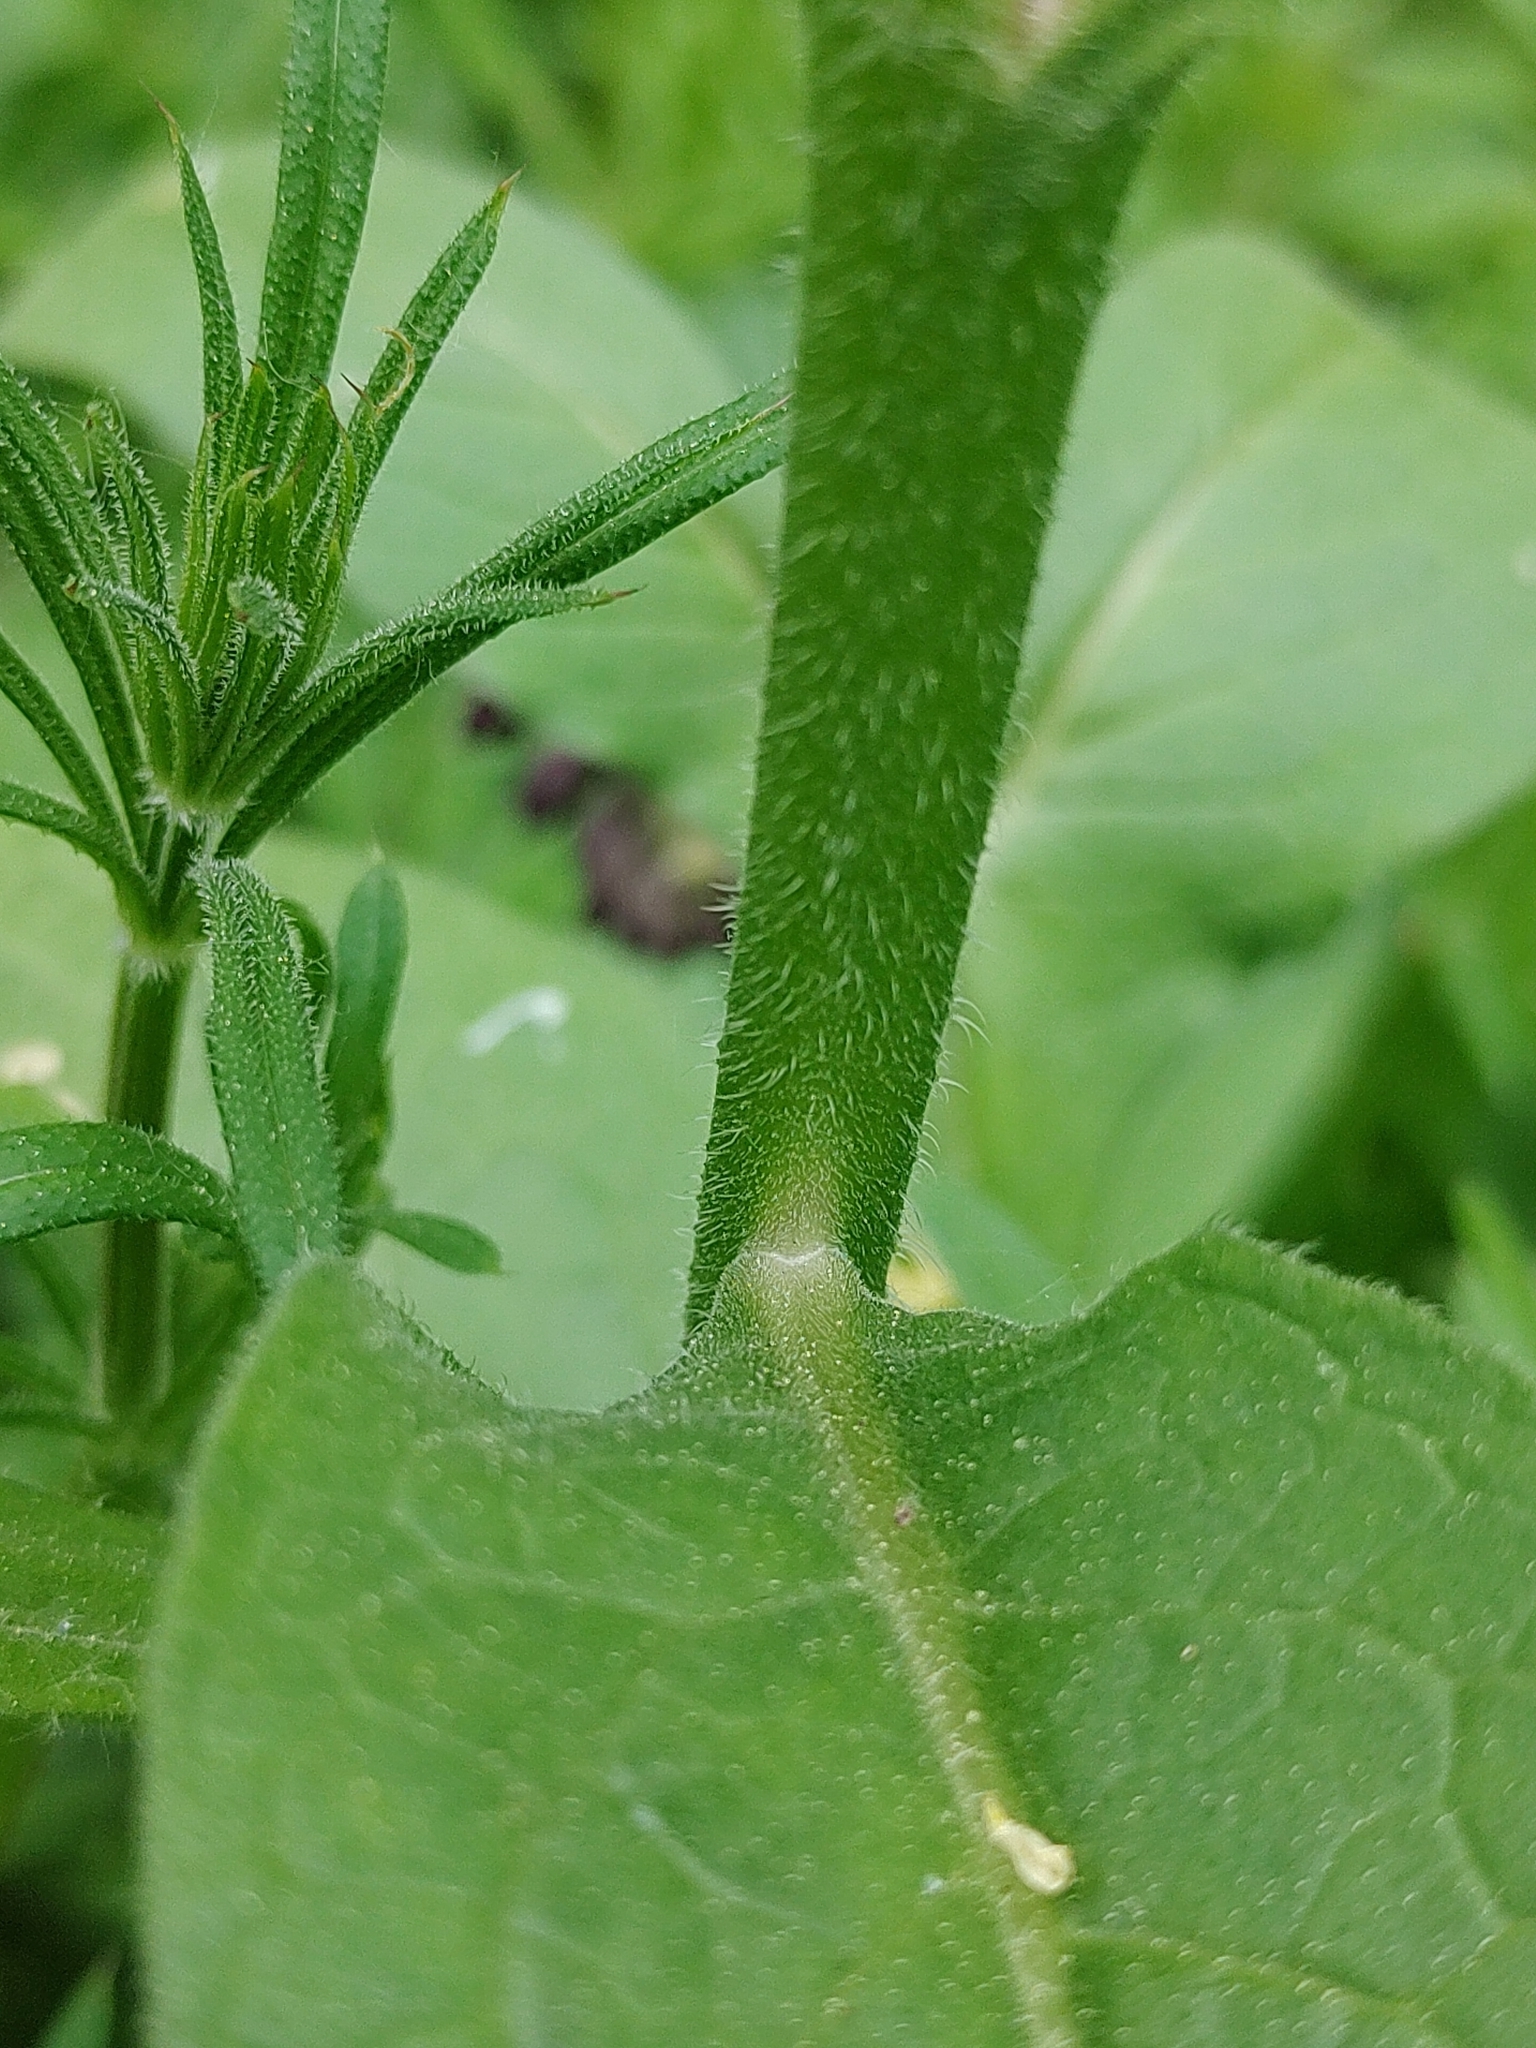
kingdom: Plantae
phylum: Tracheophyta
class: Magnoliopsida
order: Boraginales
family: Boraginaceae
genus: Symphytum
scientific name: Symphytum officinale
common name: Common comfrey
